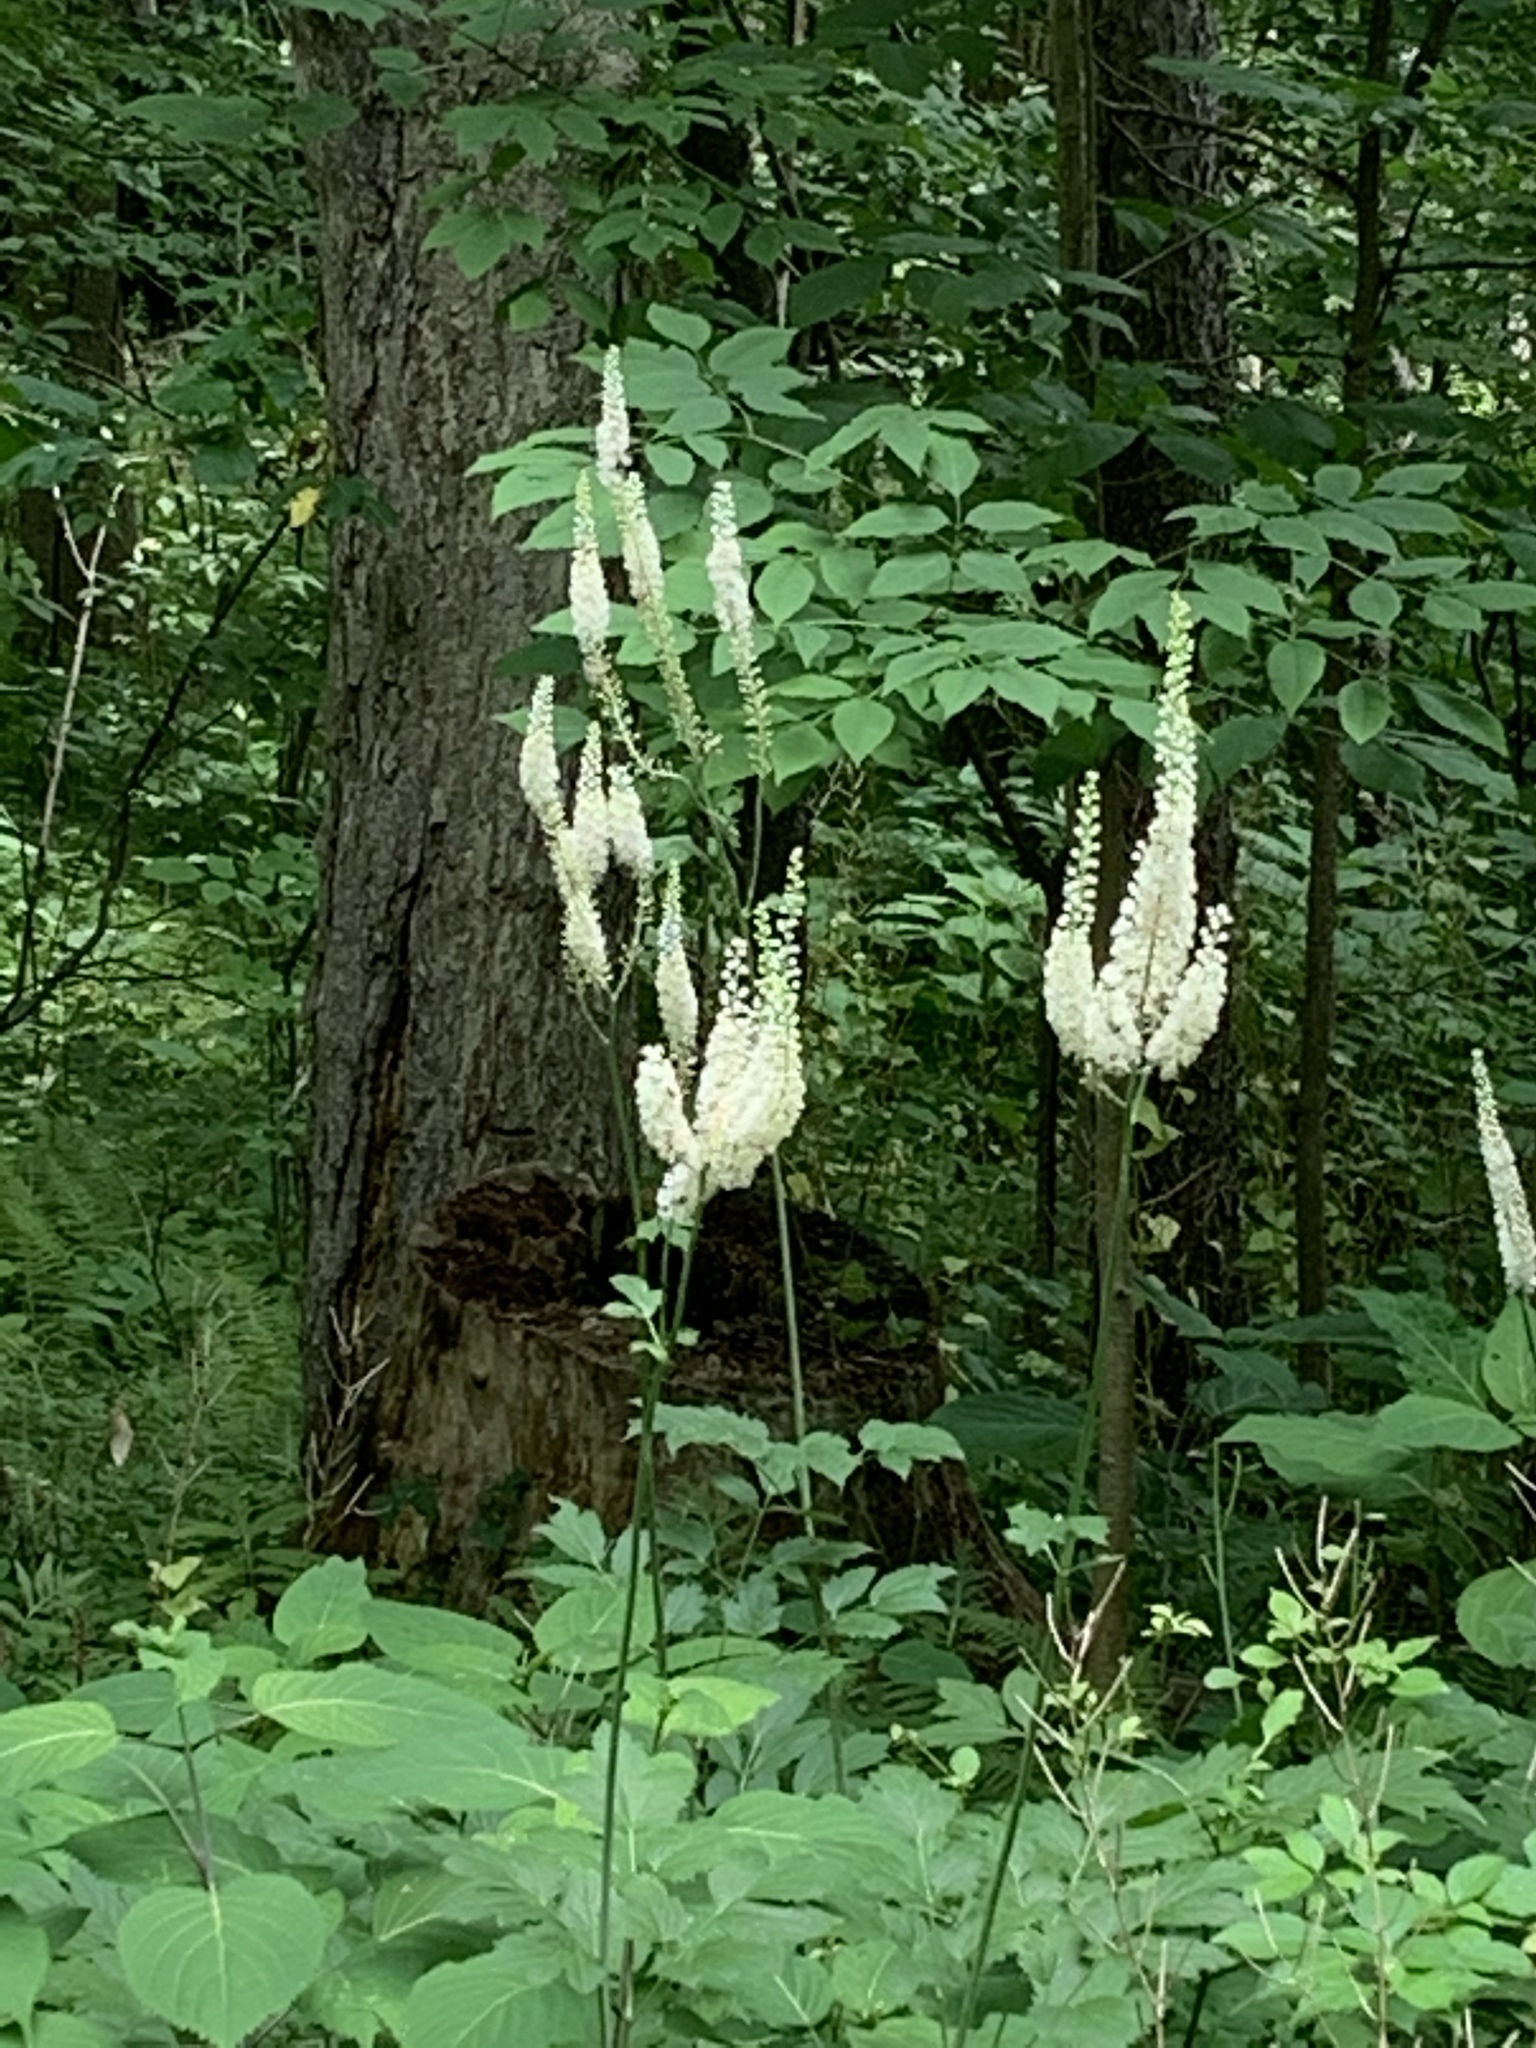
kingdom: Plantae
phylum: Tracheophyta
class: Magnoliopsida
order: Ranunculales
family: Ranunculaceae
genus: Actaea
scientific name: Actaea racemosa
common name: Black cohosh
